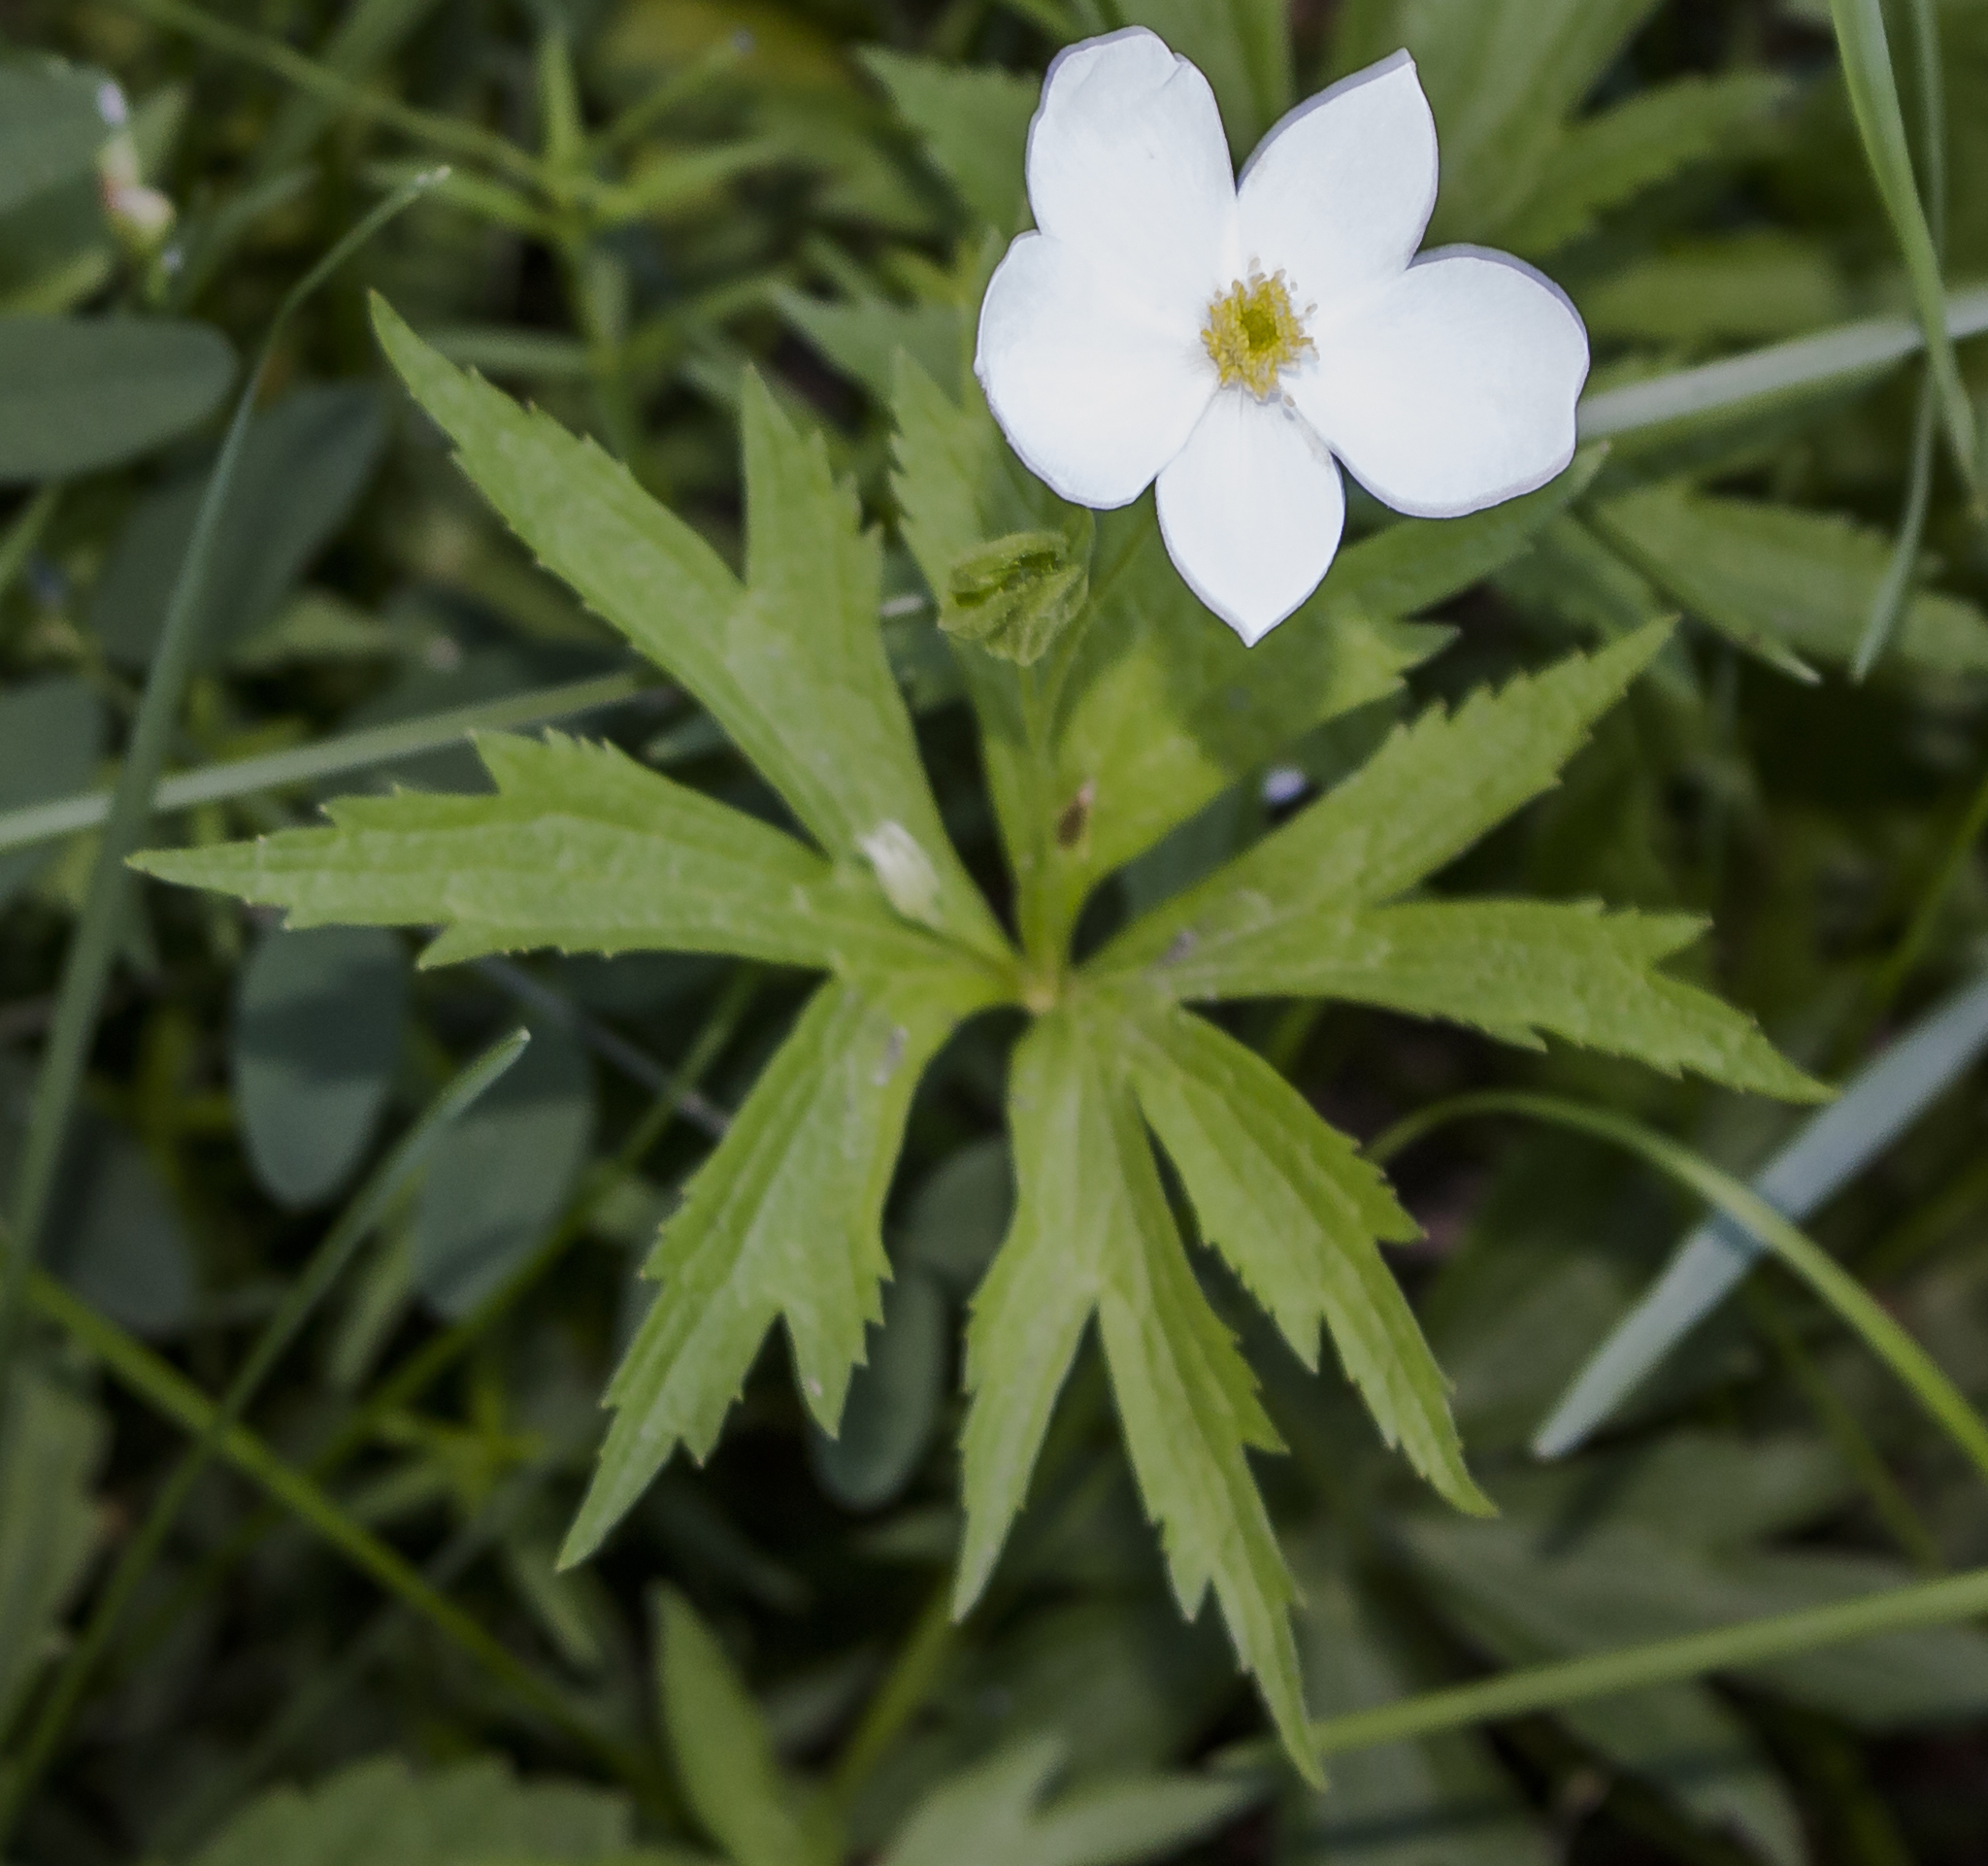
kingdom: Plantae
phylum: Tracheophyta
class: Magnoliopsida
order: Ranunculales
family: Ranunculaceae
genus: Anemonastrum
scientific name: Anemonastrum canadense
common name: Canada anemone
